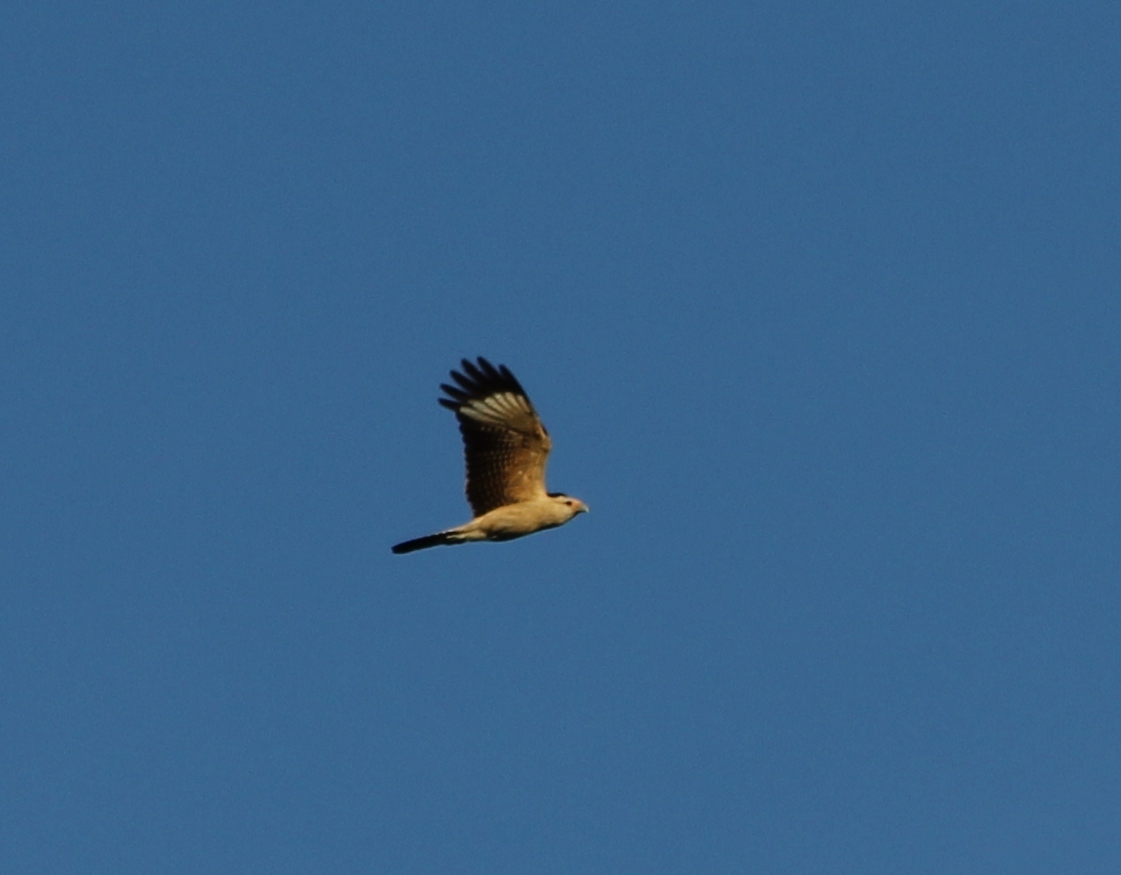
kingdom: Animalia
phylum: Chordata
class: Aves
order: Falconiformes
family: Falconidae
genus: Daptrius
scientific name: Daptrius
